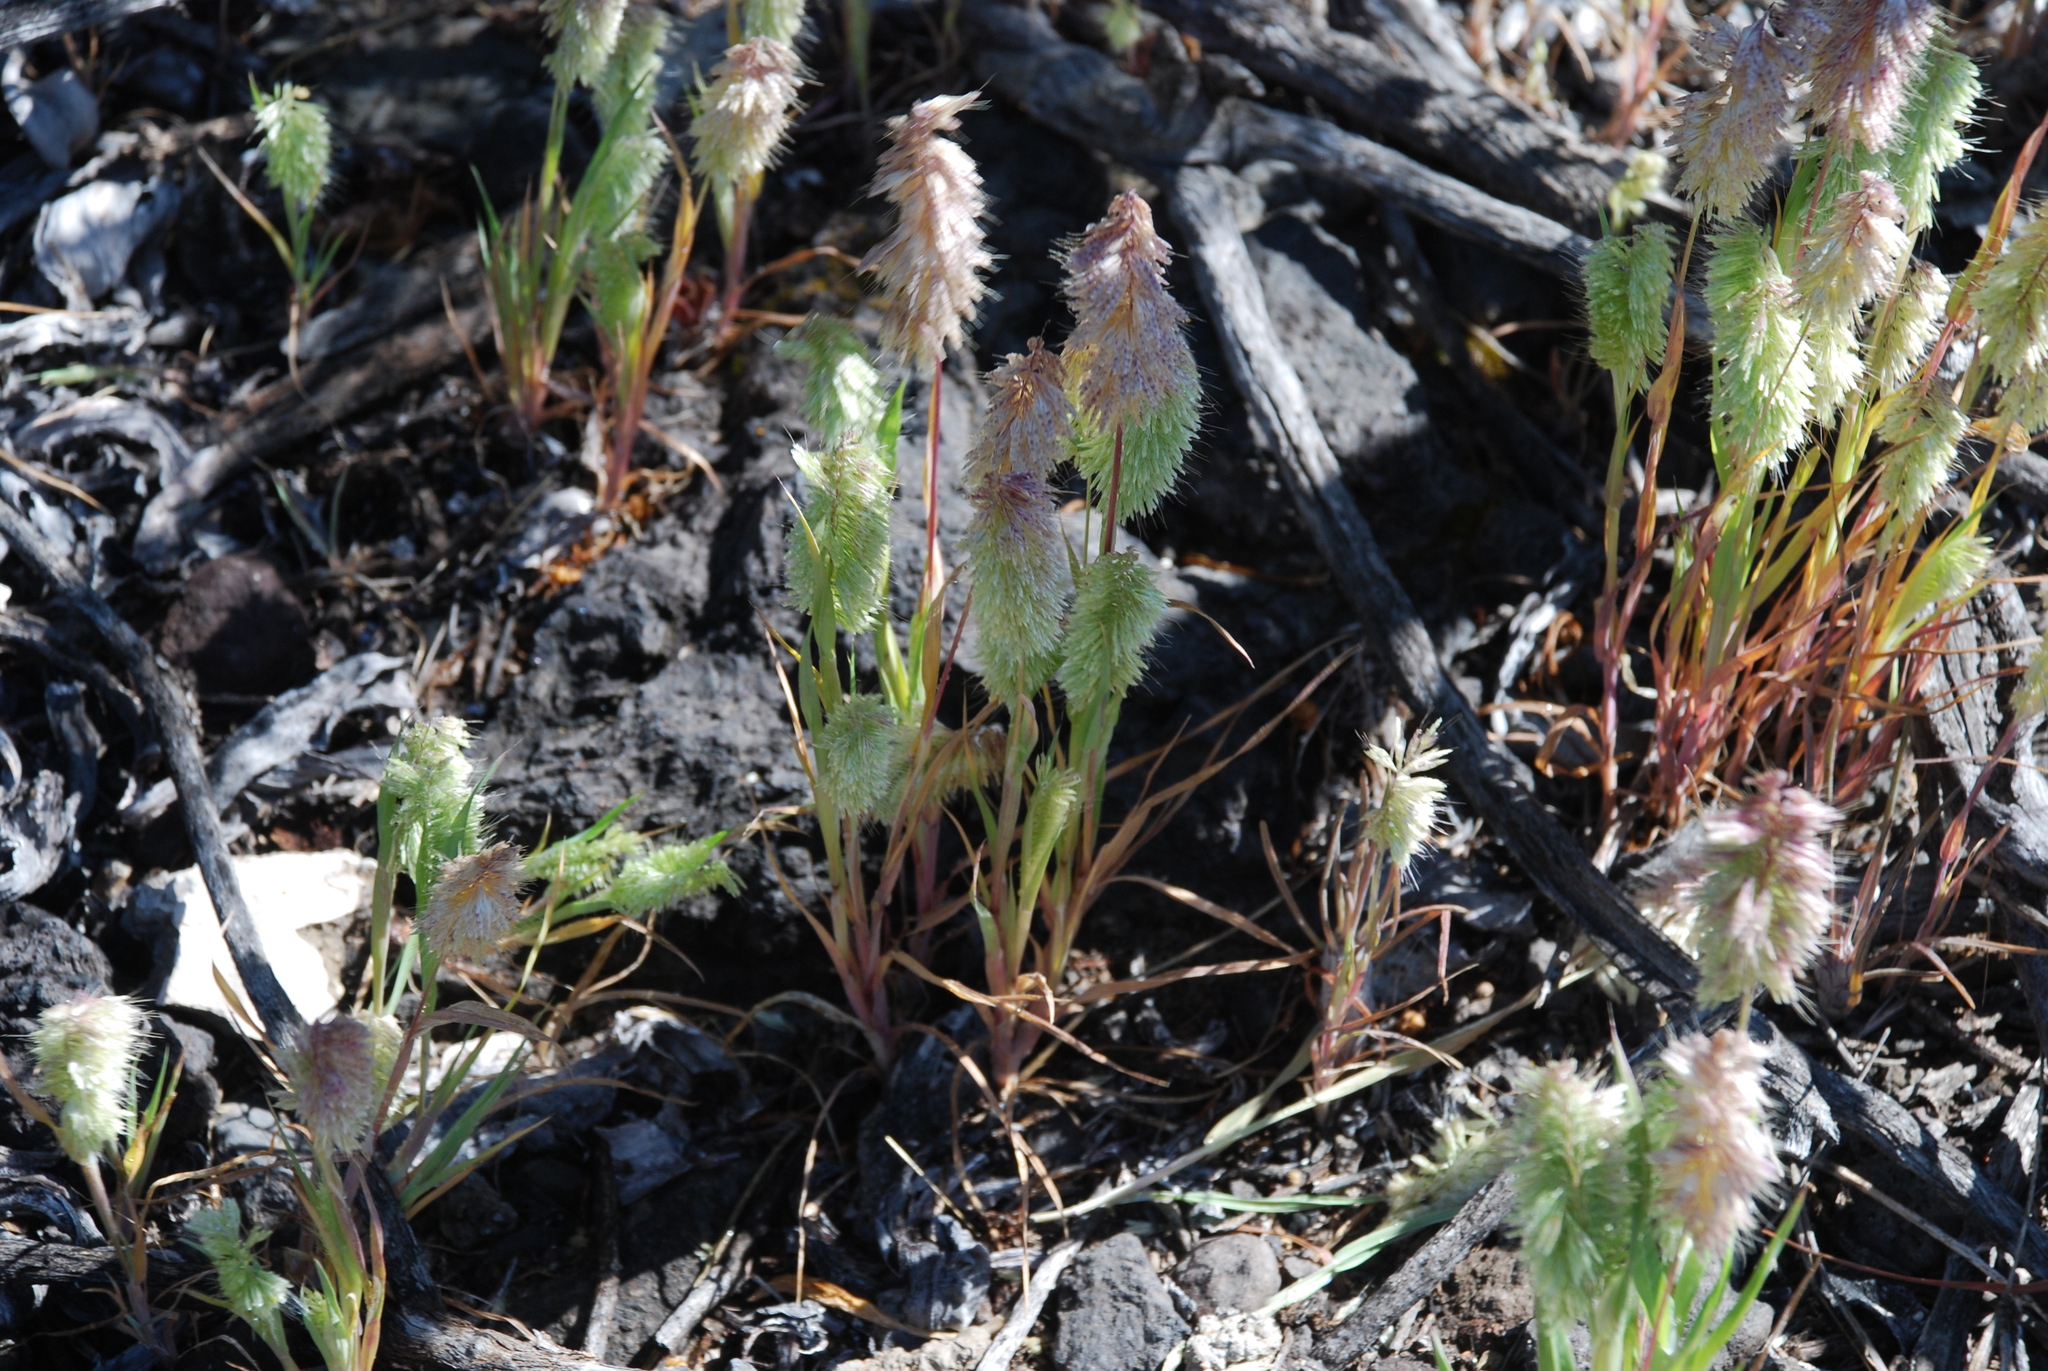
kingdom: Plantae
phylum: Tracheophyta
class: Liliopsida
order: Poales
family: Poaceae
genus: Lamarckia
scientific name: Lamarckia aurea
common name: Golden dog's-tail
